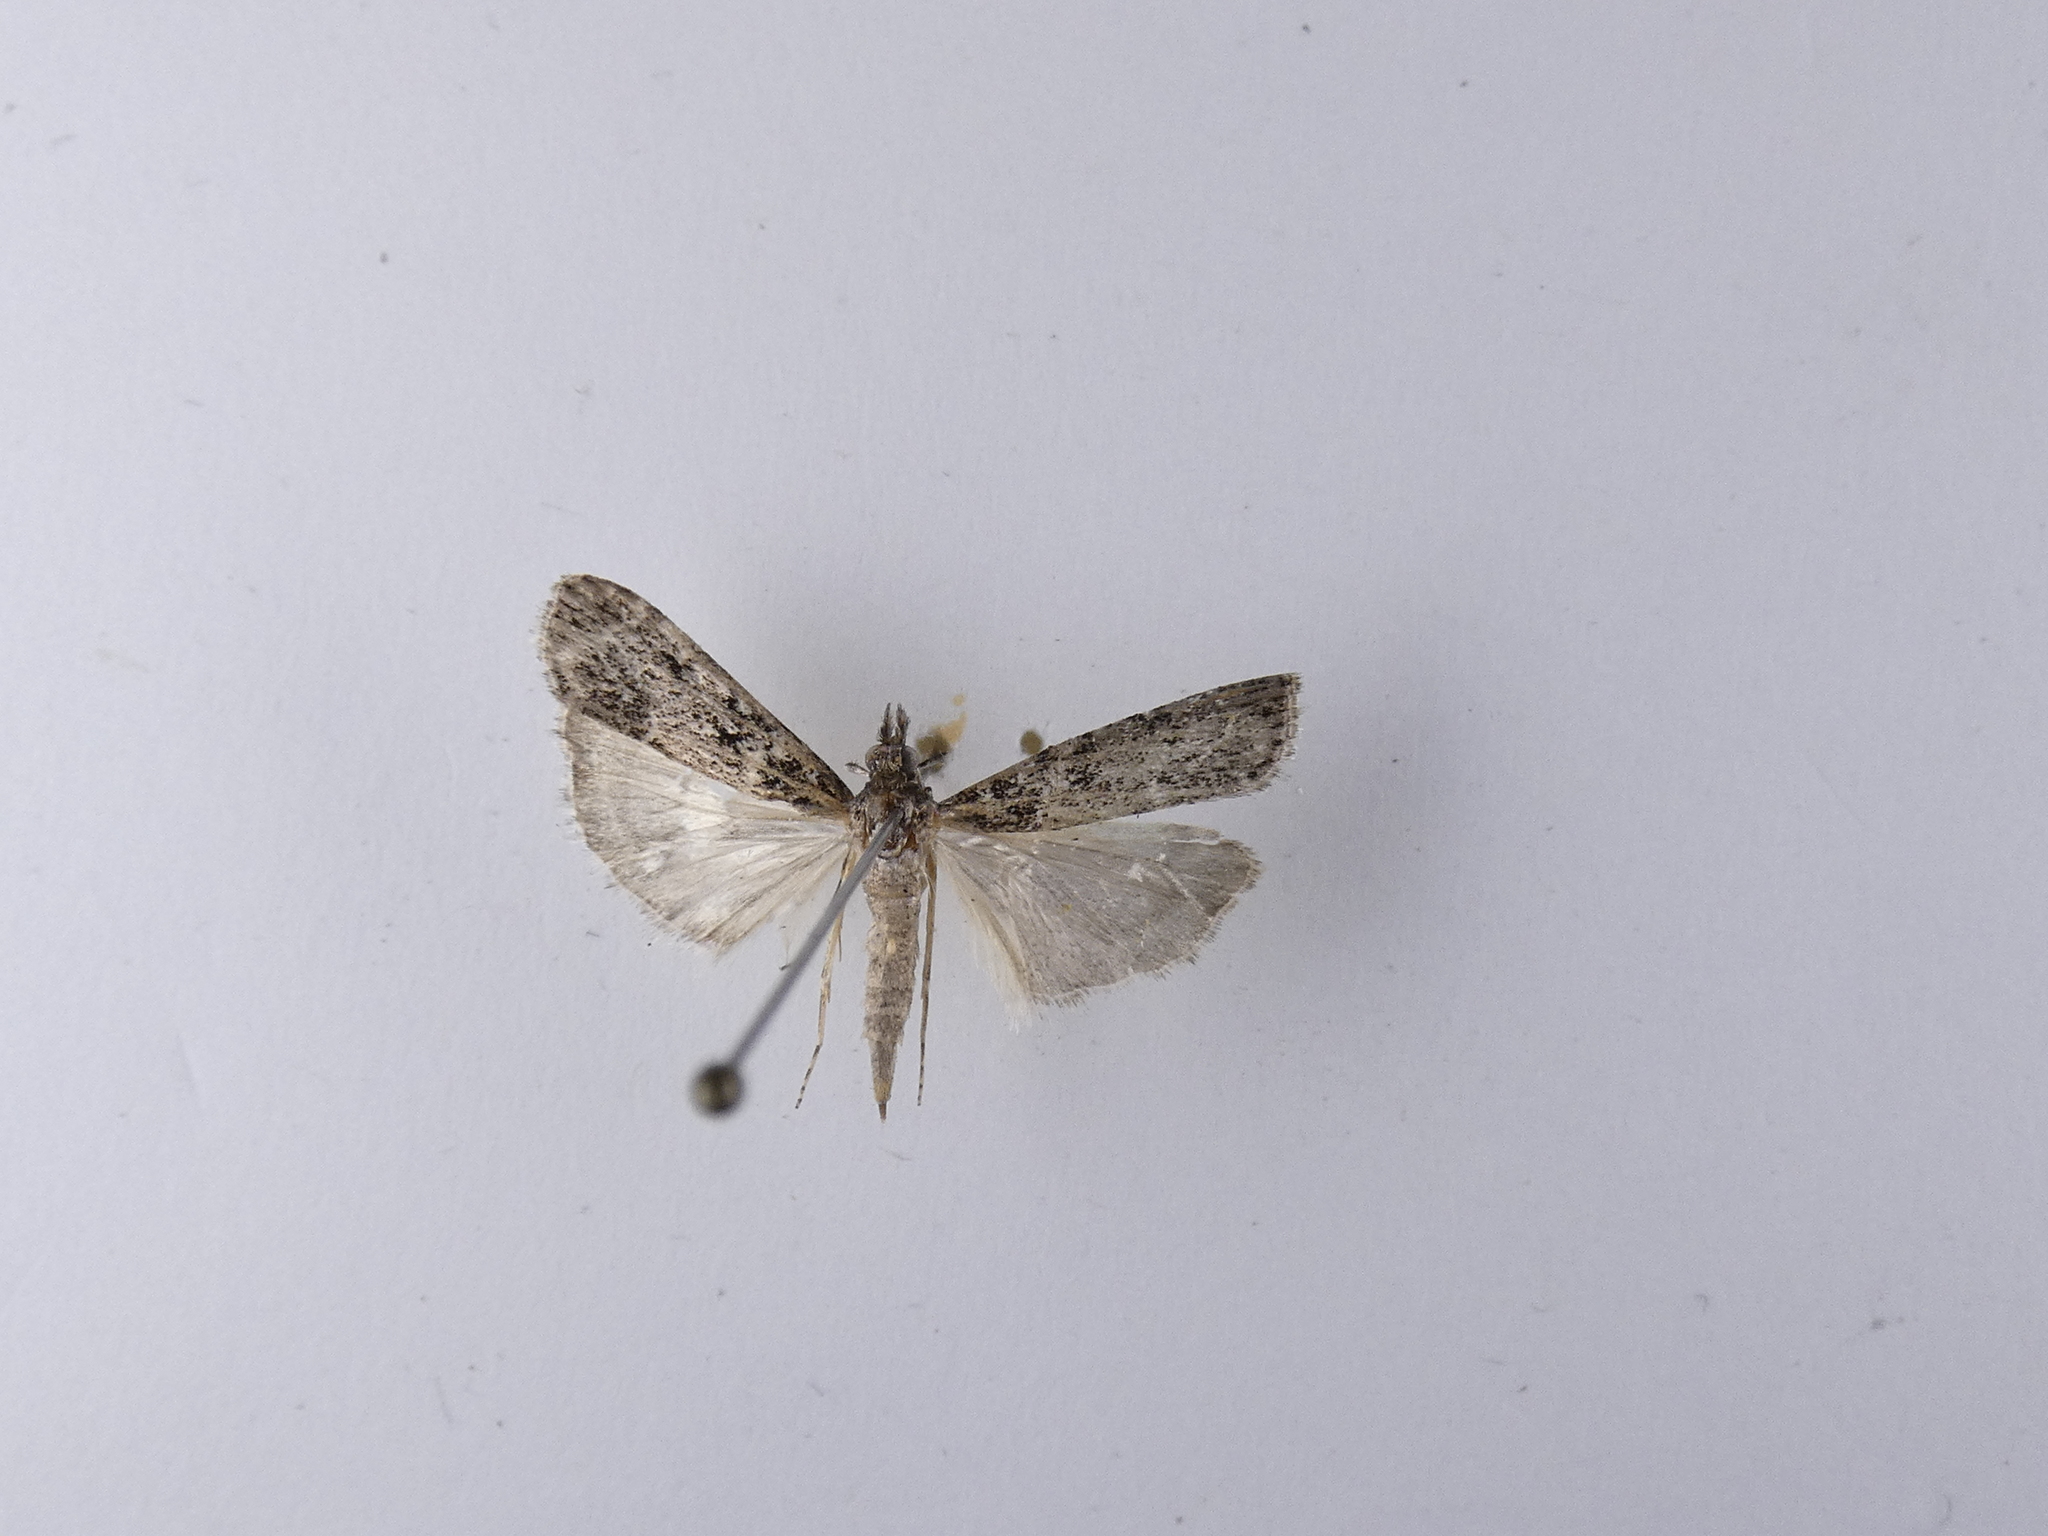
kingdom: Animalia
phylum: Arthropoda
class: Insecta
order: Lepidoptera
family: Crambidae
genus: Eudonia
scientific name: Eudonia philerga
